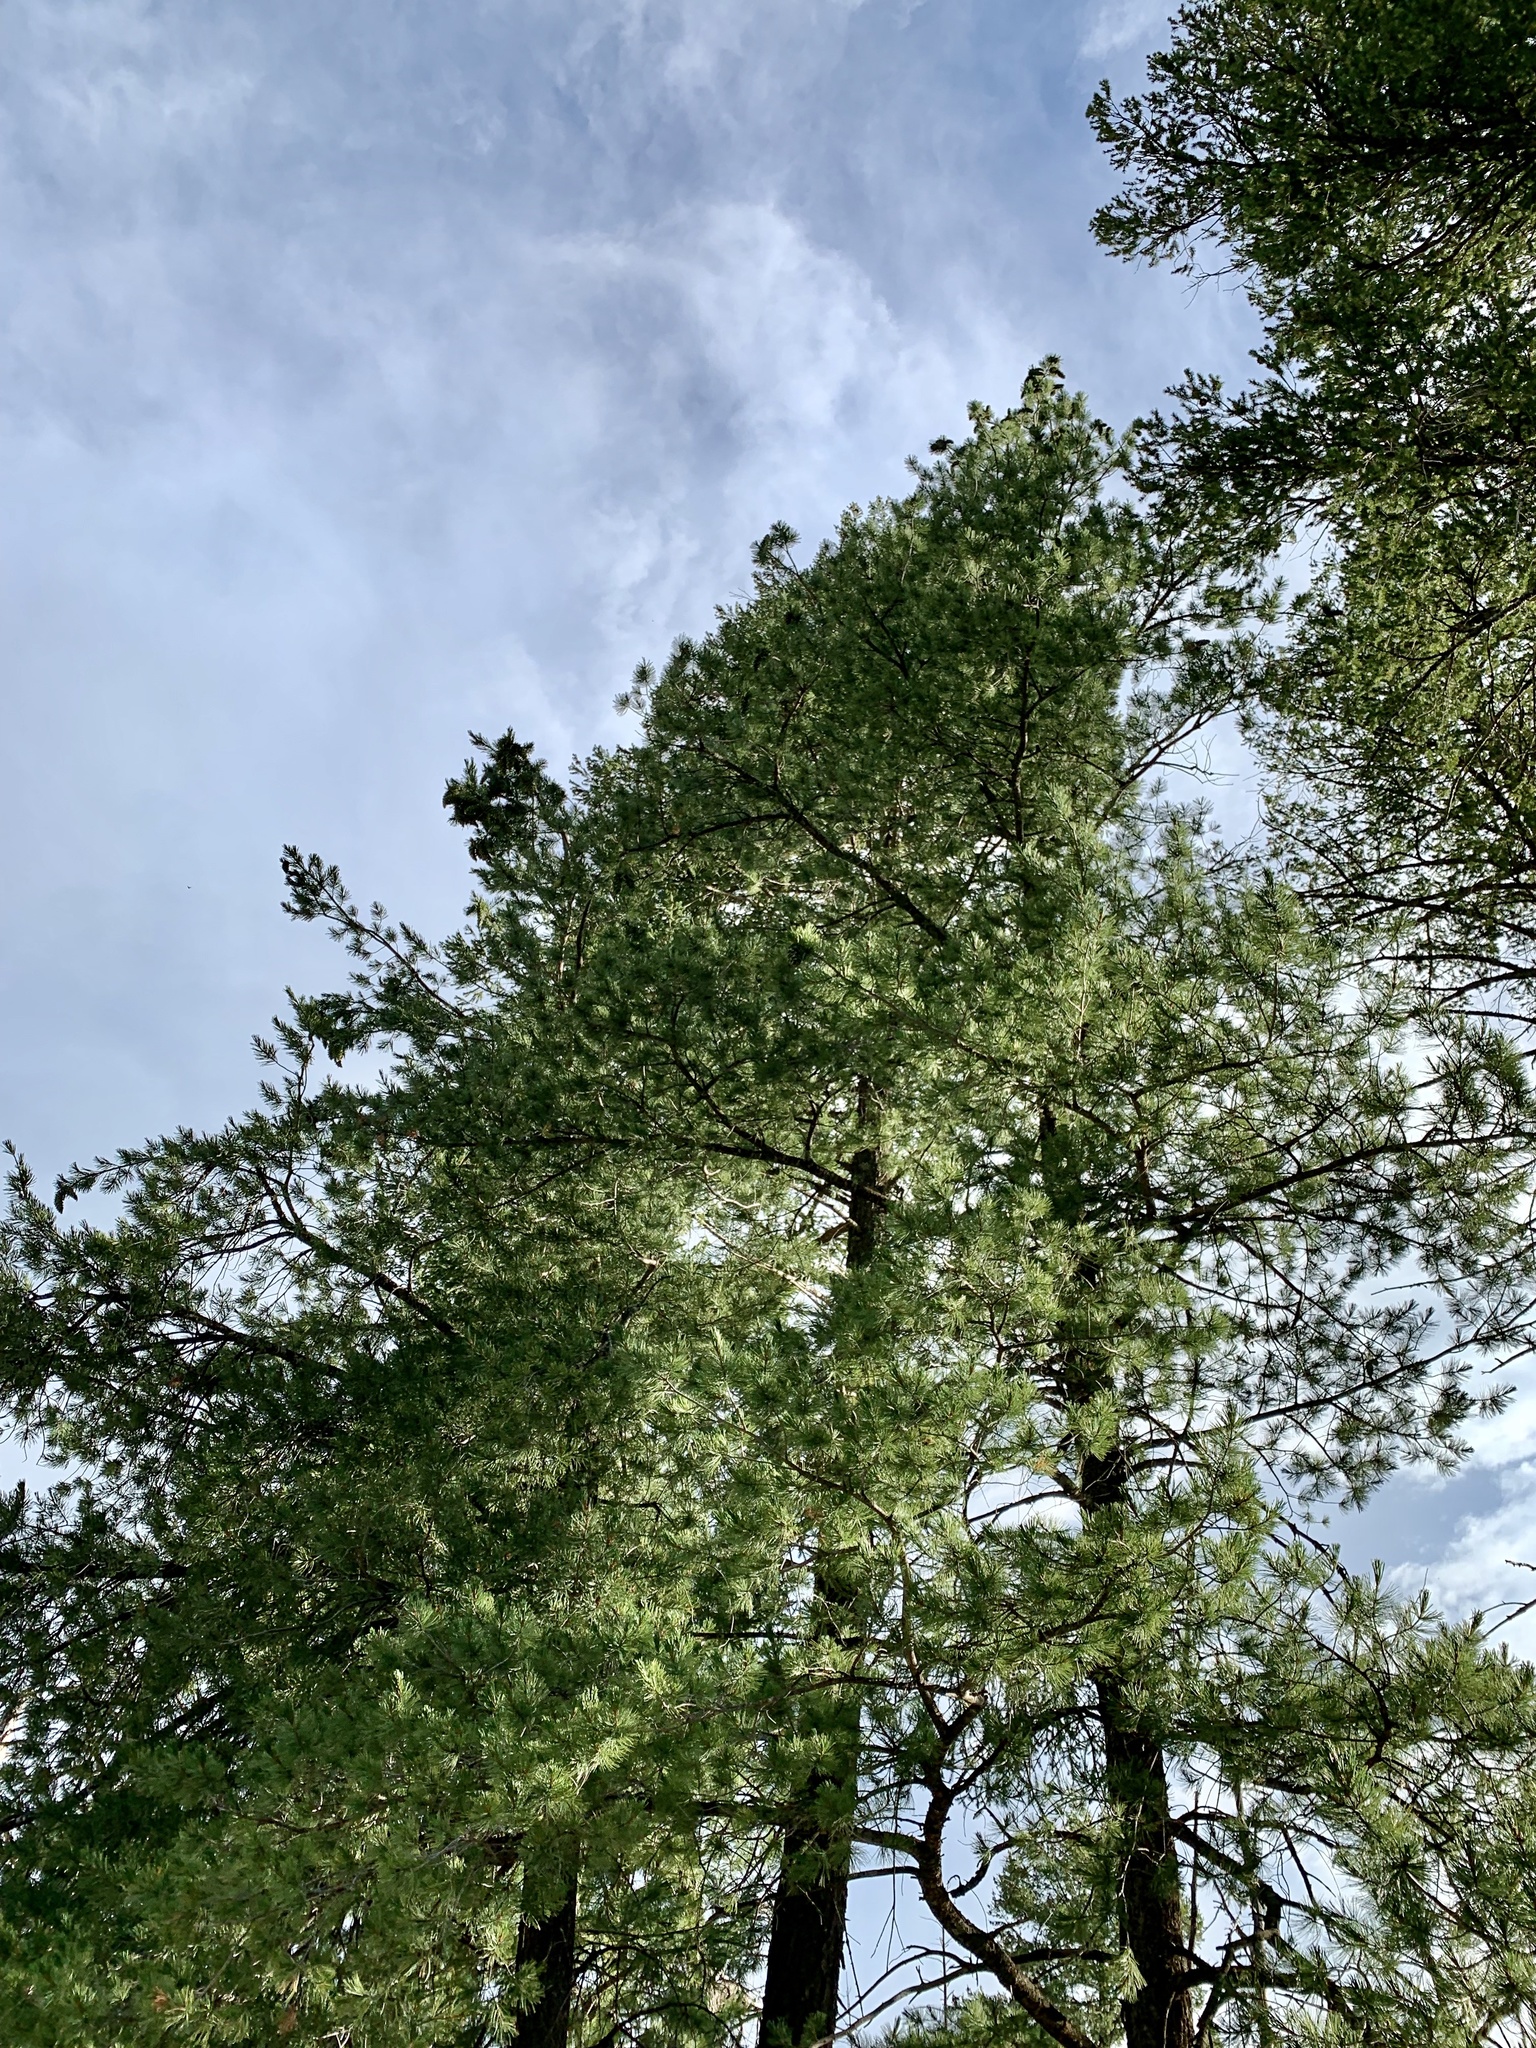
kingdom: Plantae
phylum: Tracheophyta
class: Pinopsida
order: Pinales
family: Pinaceae
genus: Pinus
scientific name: Pinus strobiformis
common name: Southwestern white pine
